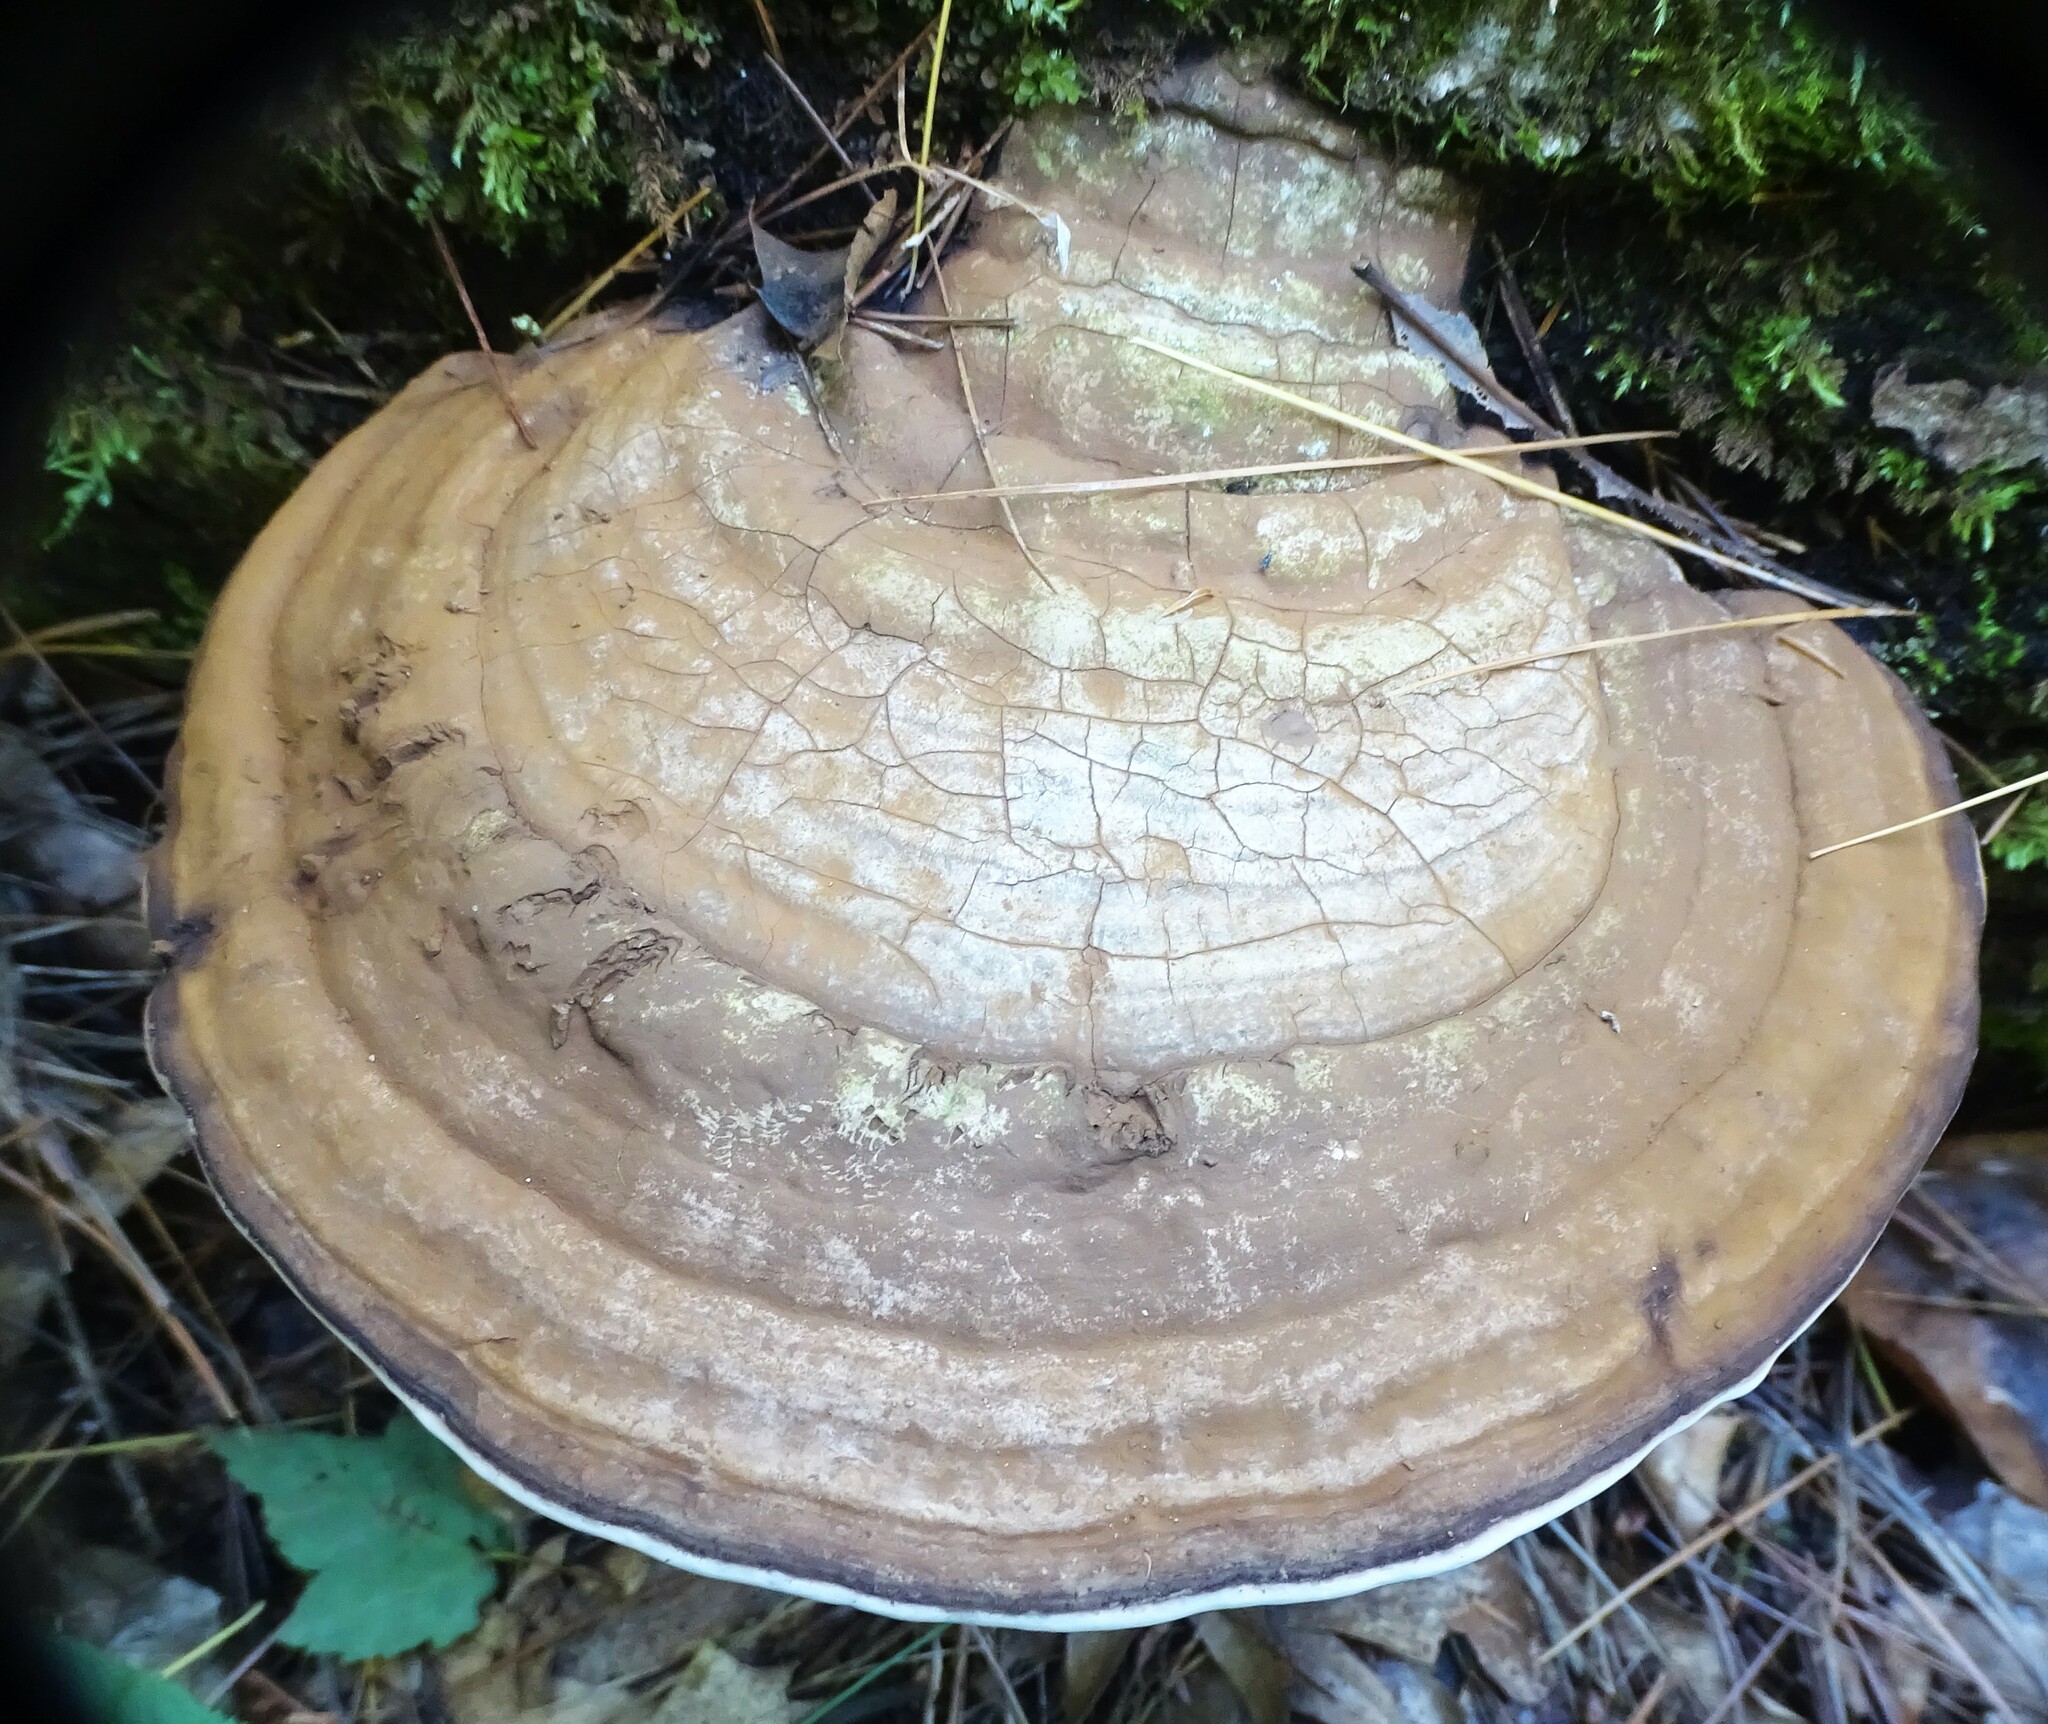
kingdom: Fungi
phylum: Basidiomycota
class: Agaricomycetes
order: Polyporales
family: Polyporaceae
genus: Ganoderma
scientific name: Ganoderma applanatum
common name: Artist's bracket
